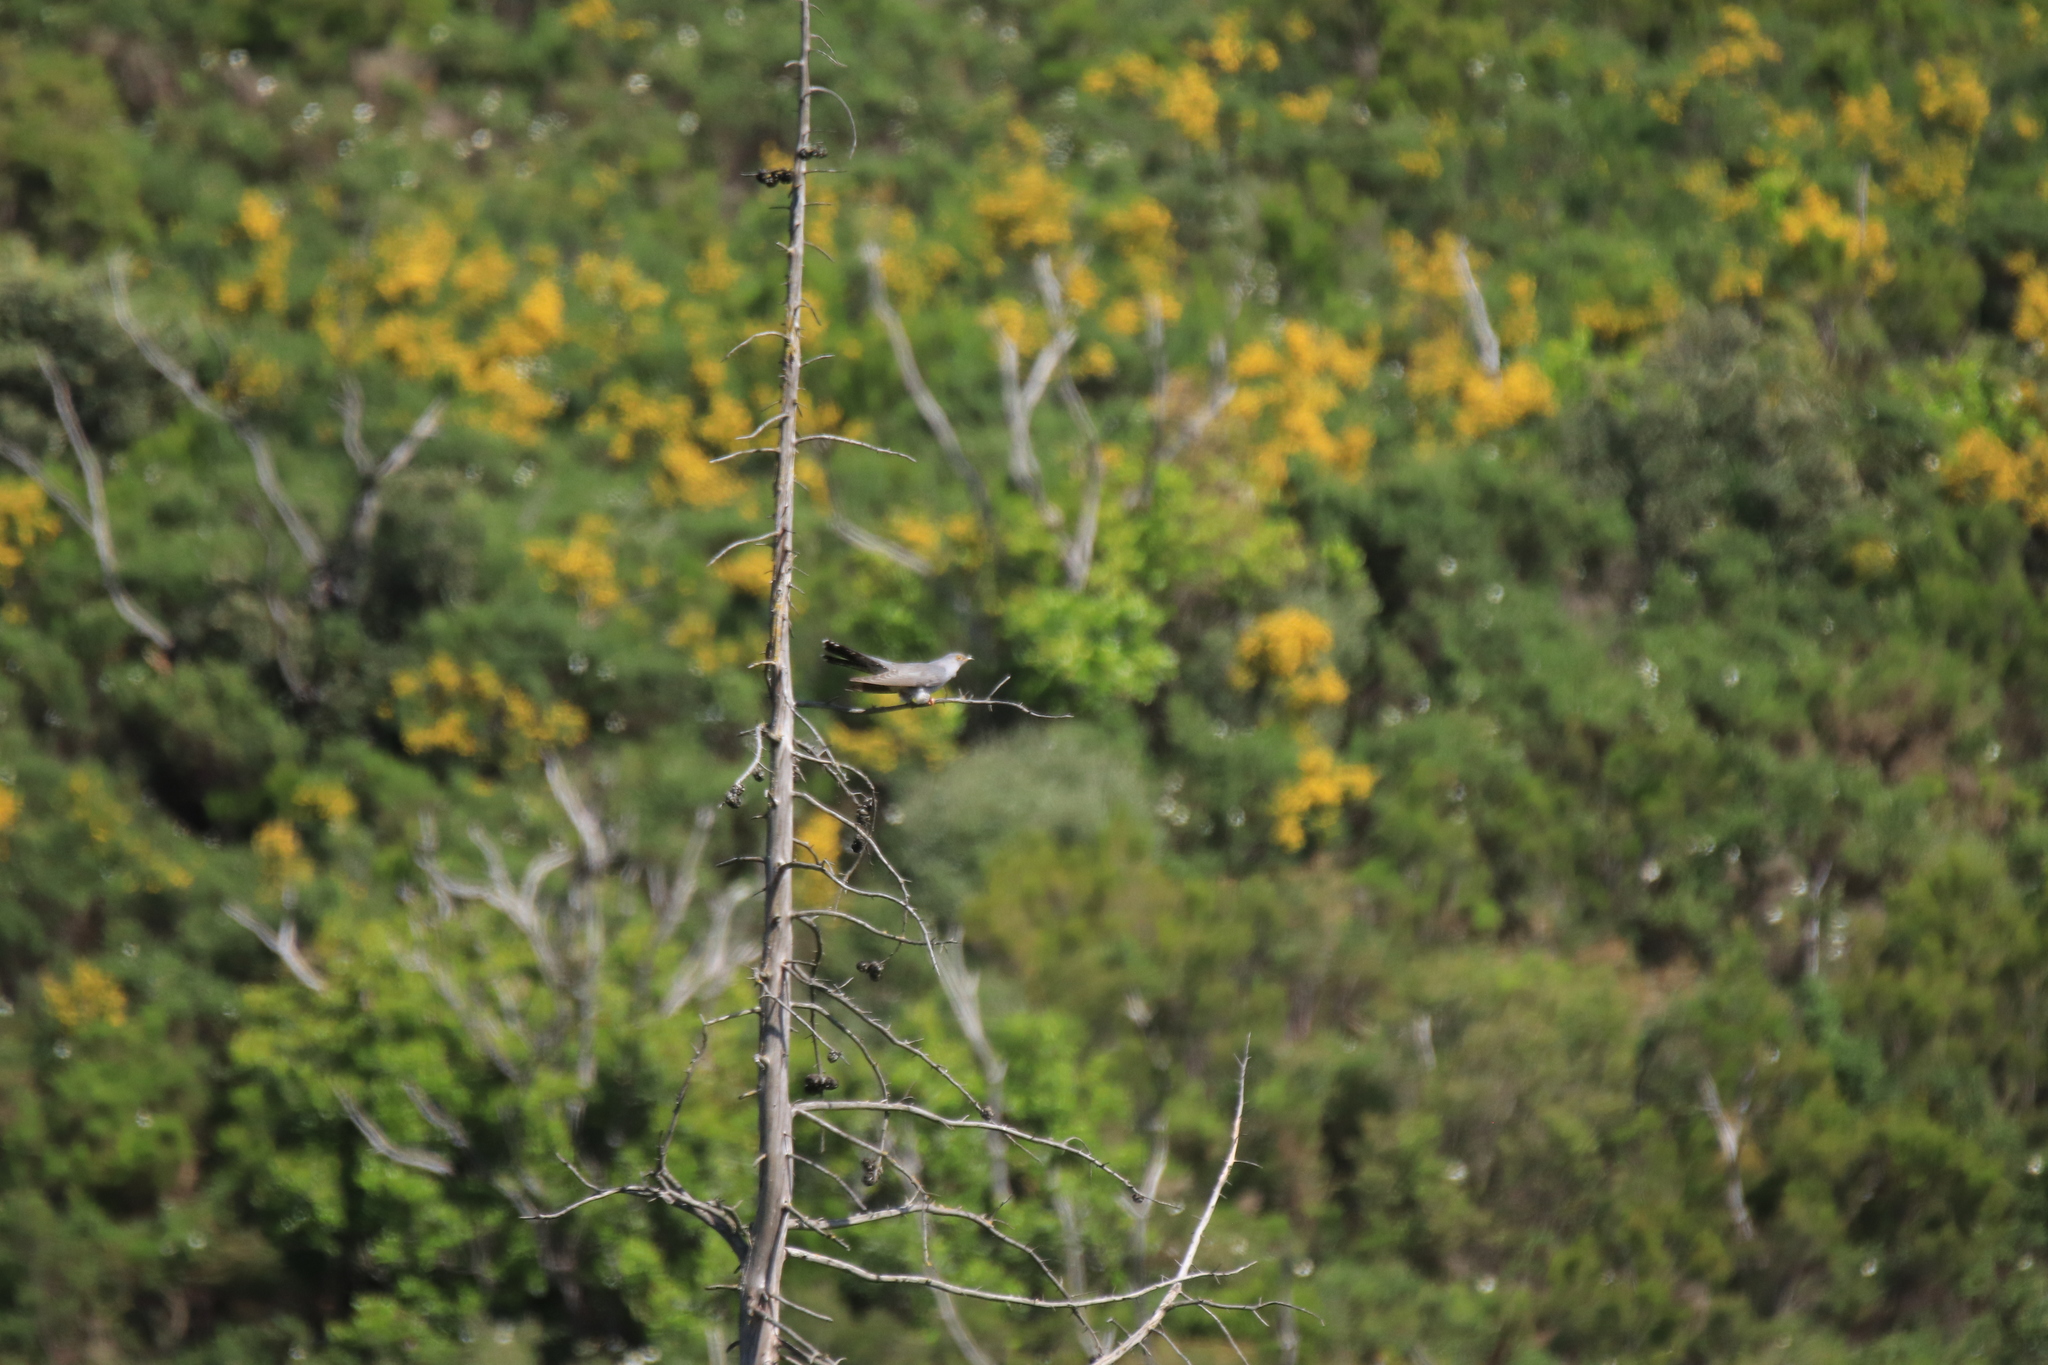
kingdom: Animalia
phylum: Chordata
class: Aves
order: Cuculiformes
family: Cuculidae
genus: Cuculus
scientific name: Cuculus canorus
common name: Common cuckoo
